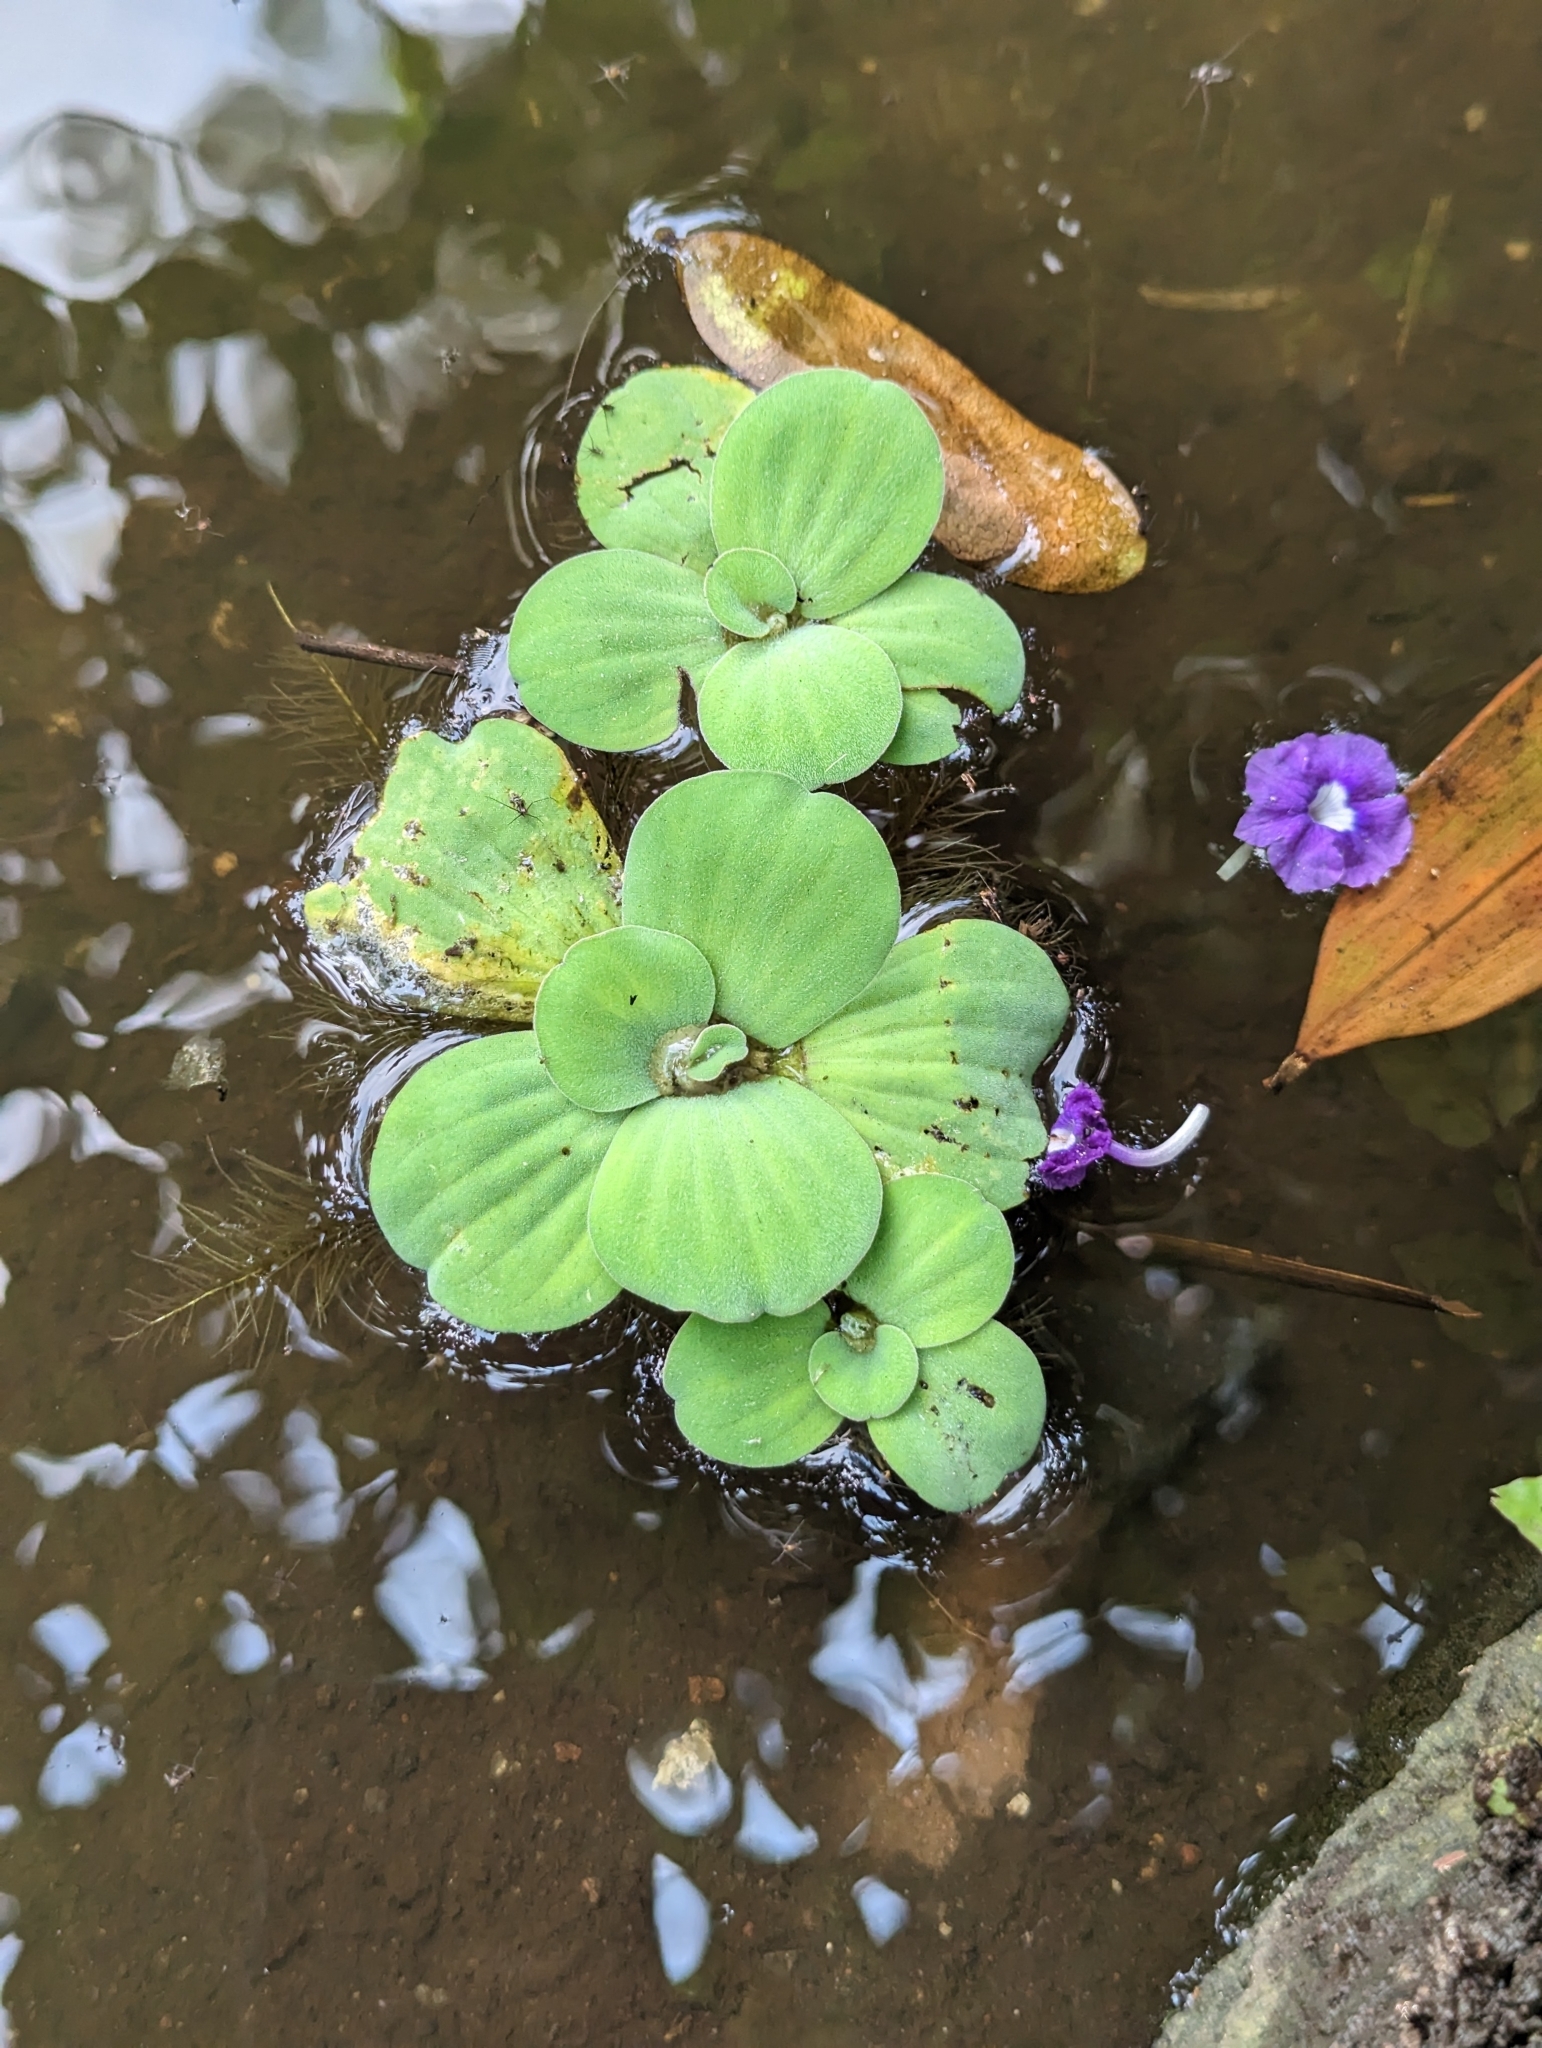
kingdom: Plantae
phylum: Tracheophyta
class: Liliopsida
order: Alismatales
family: Araceae
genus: Pistia
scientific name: Pistia stratiotes
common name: Water lettuce
